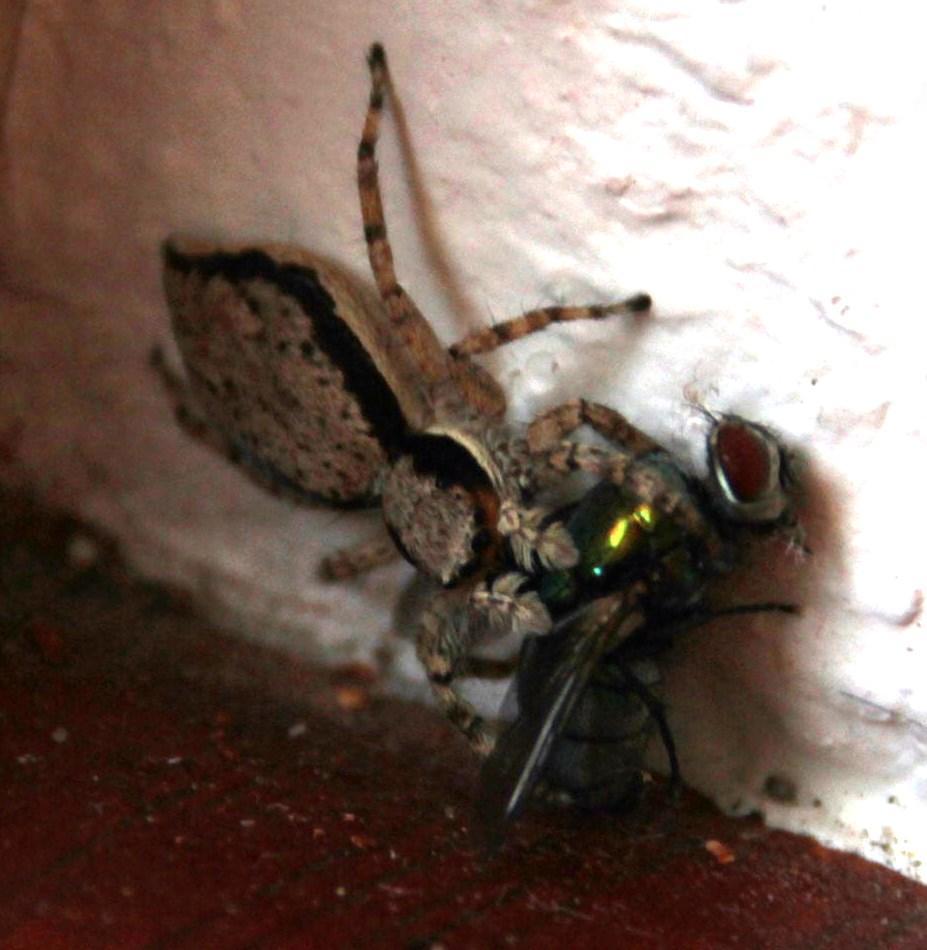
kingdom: Animalia
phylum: Arthropoda
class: Arachnida
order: Araneae
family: Salticidae
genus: Menemerus
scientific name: Menemerus bivittatus
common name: Gray wall jumper
